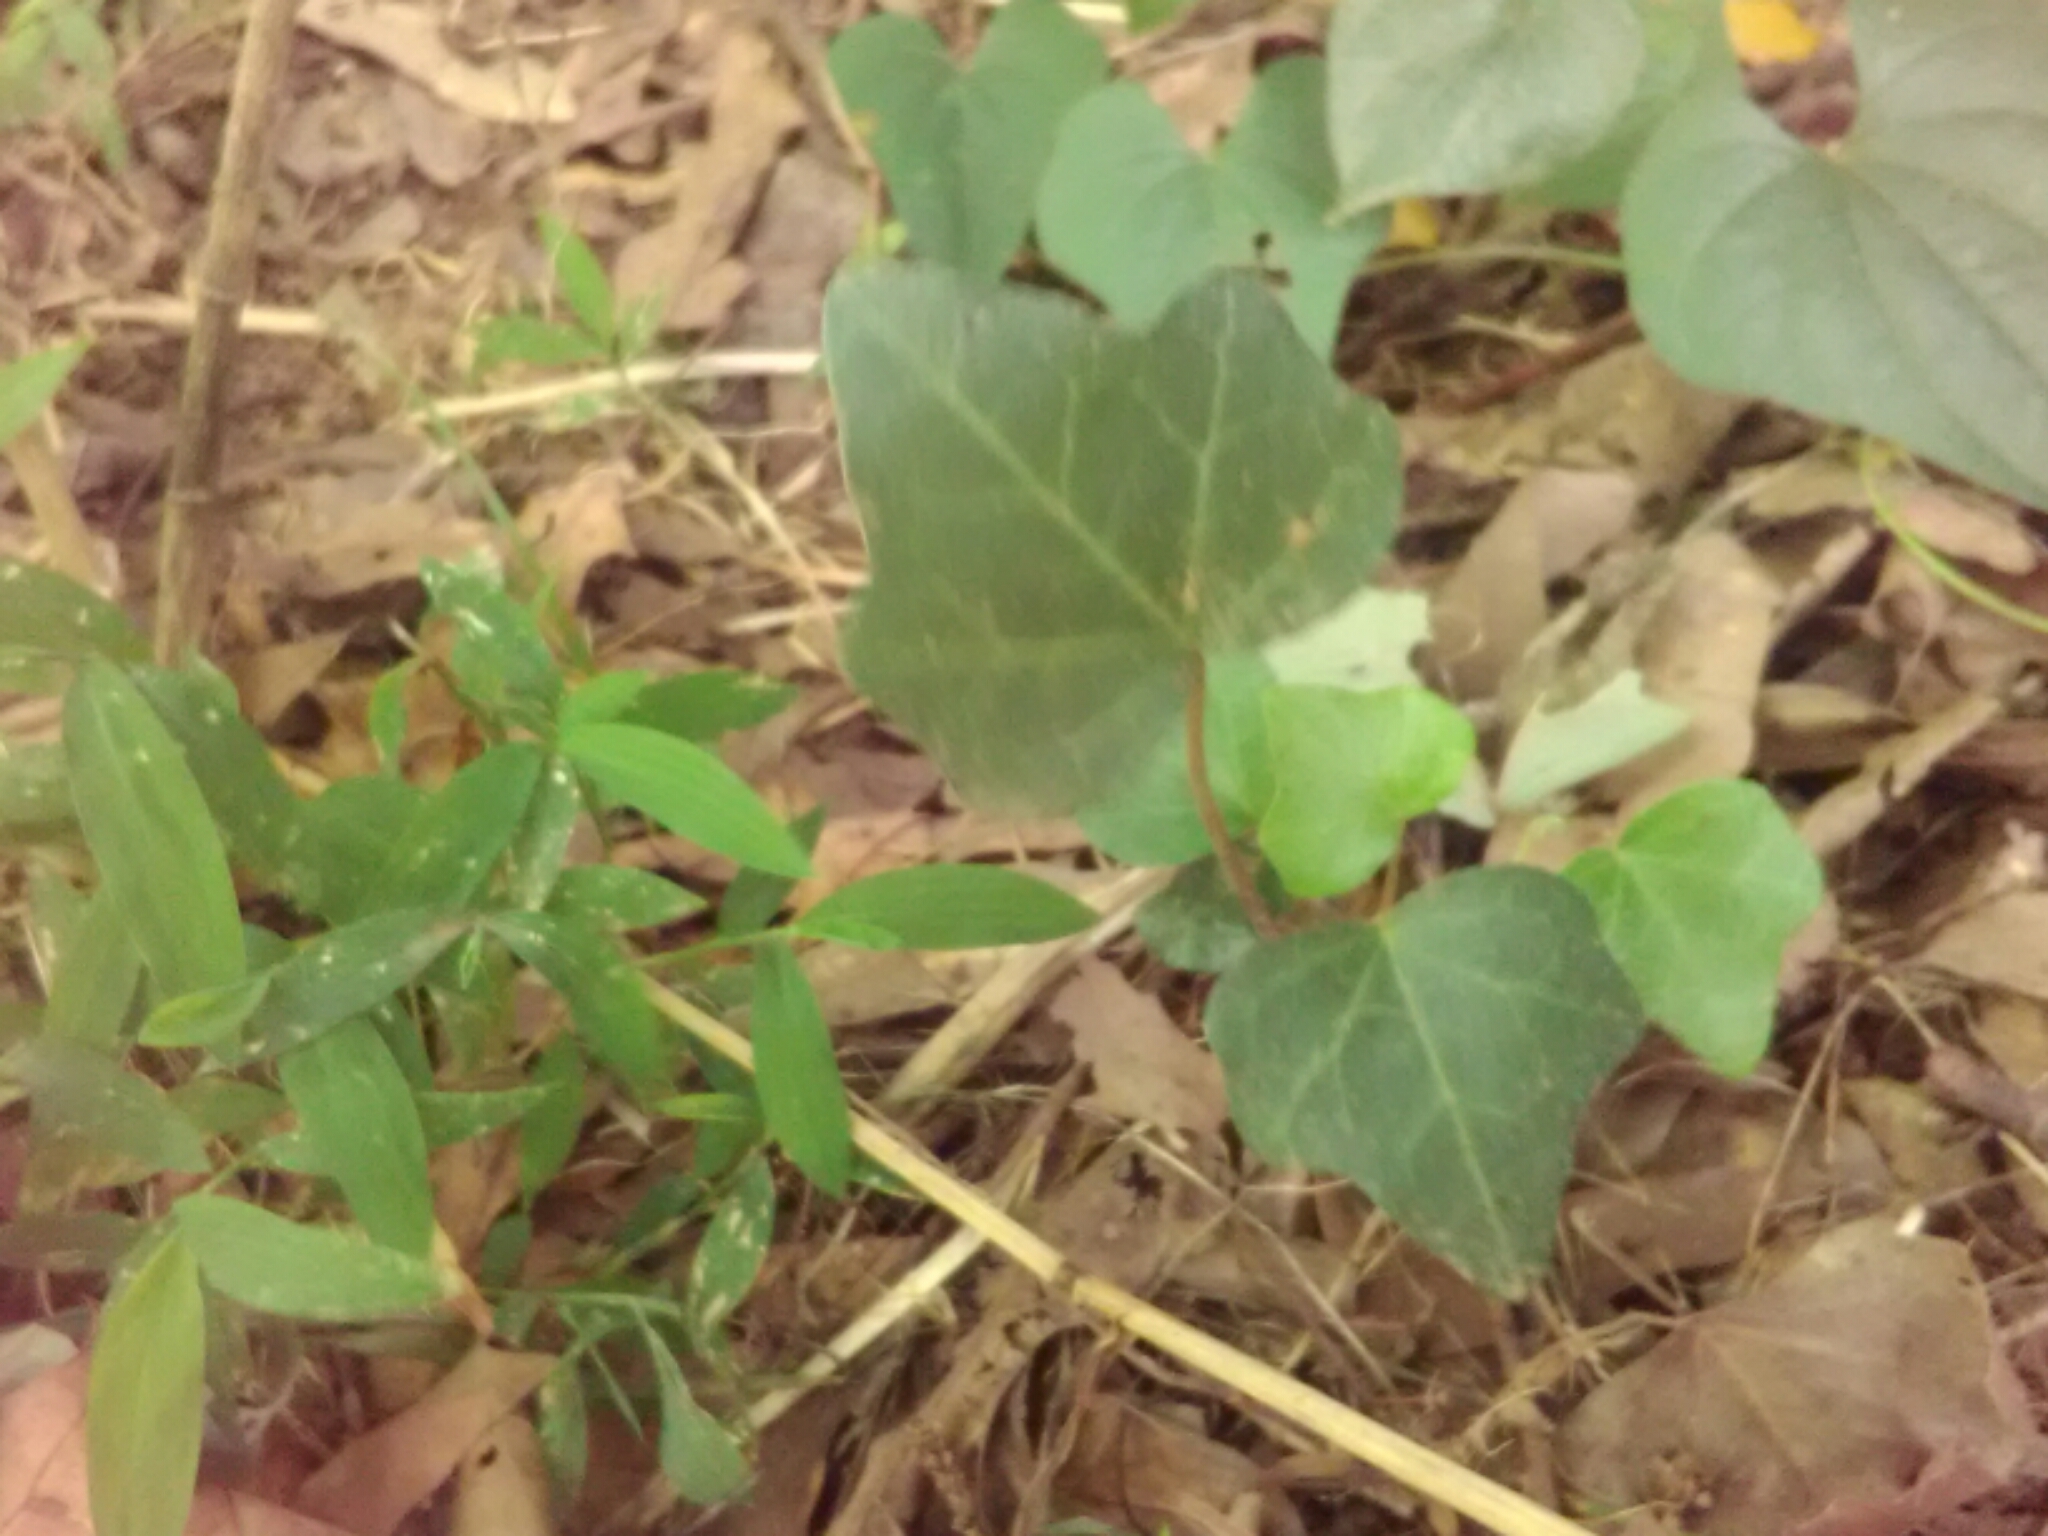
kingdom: Plantae
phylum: Tracheophyta
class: Magnoliopsida
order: Apiales
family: Araliaceae
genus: Hedera
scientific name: Hedera helix
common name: Ivy
